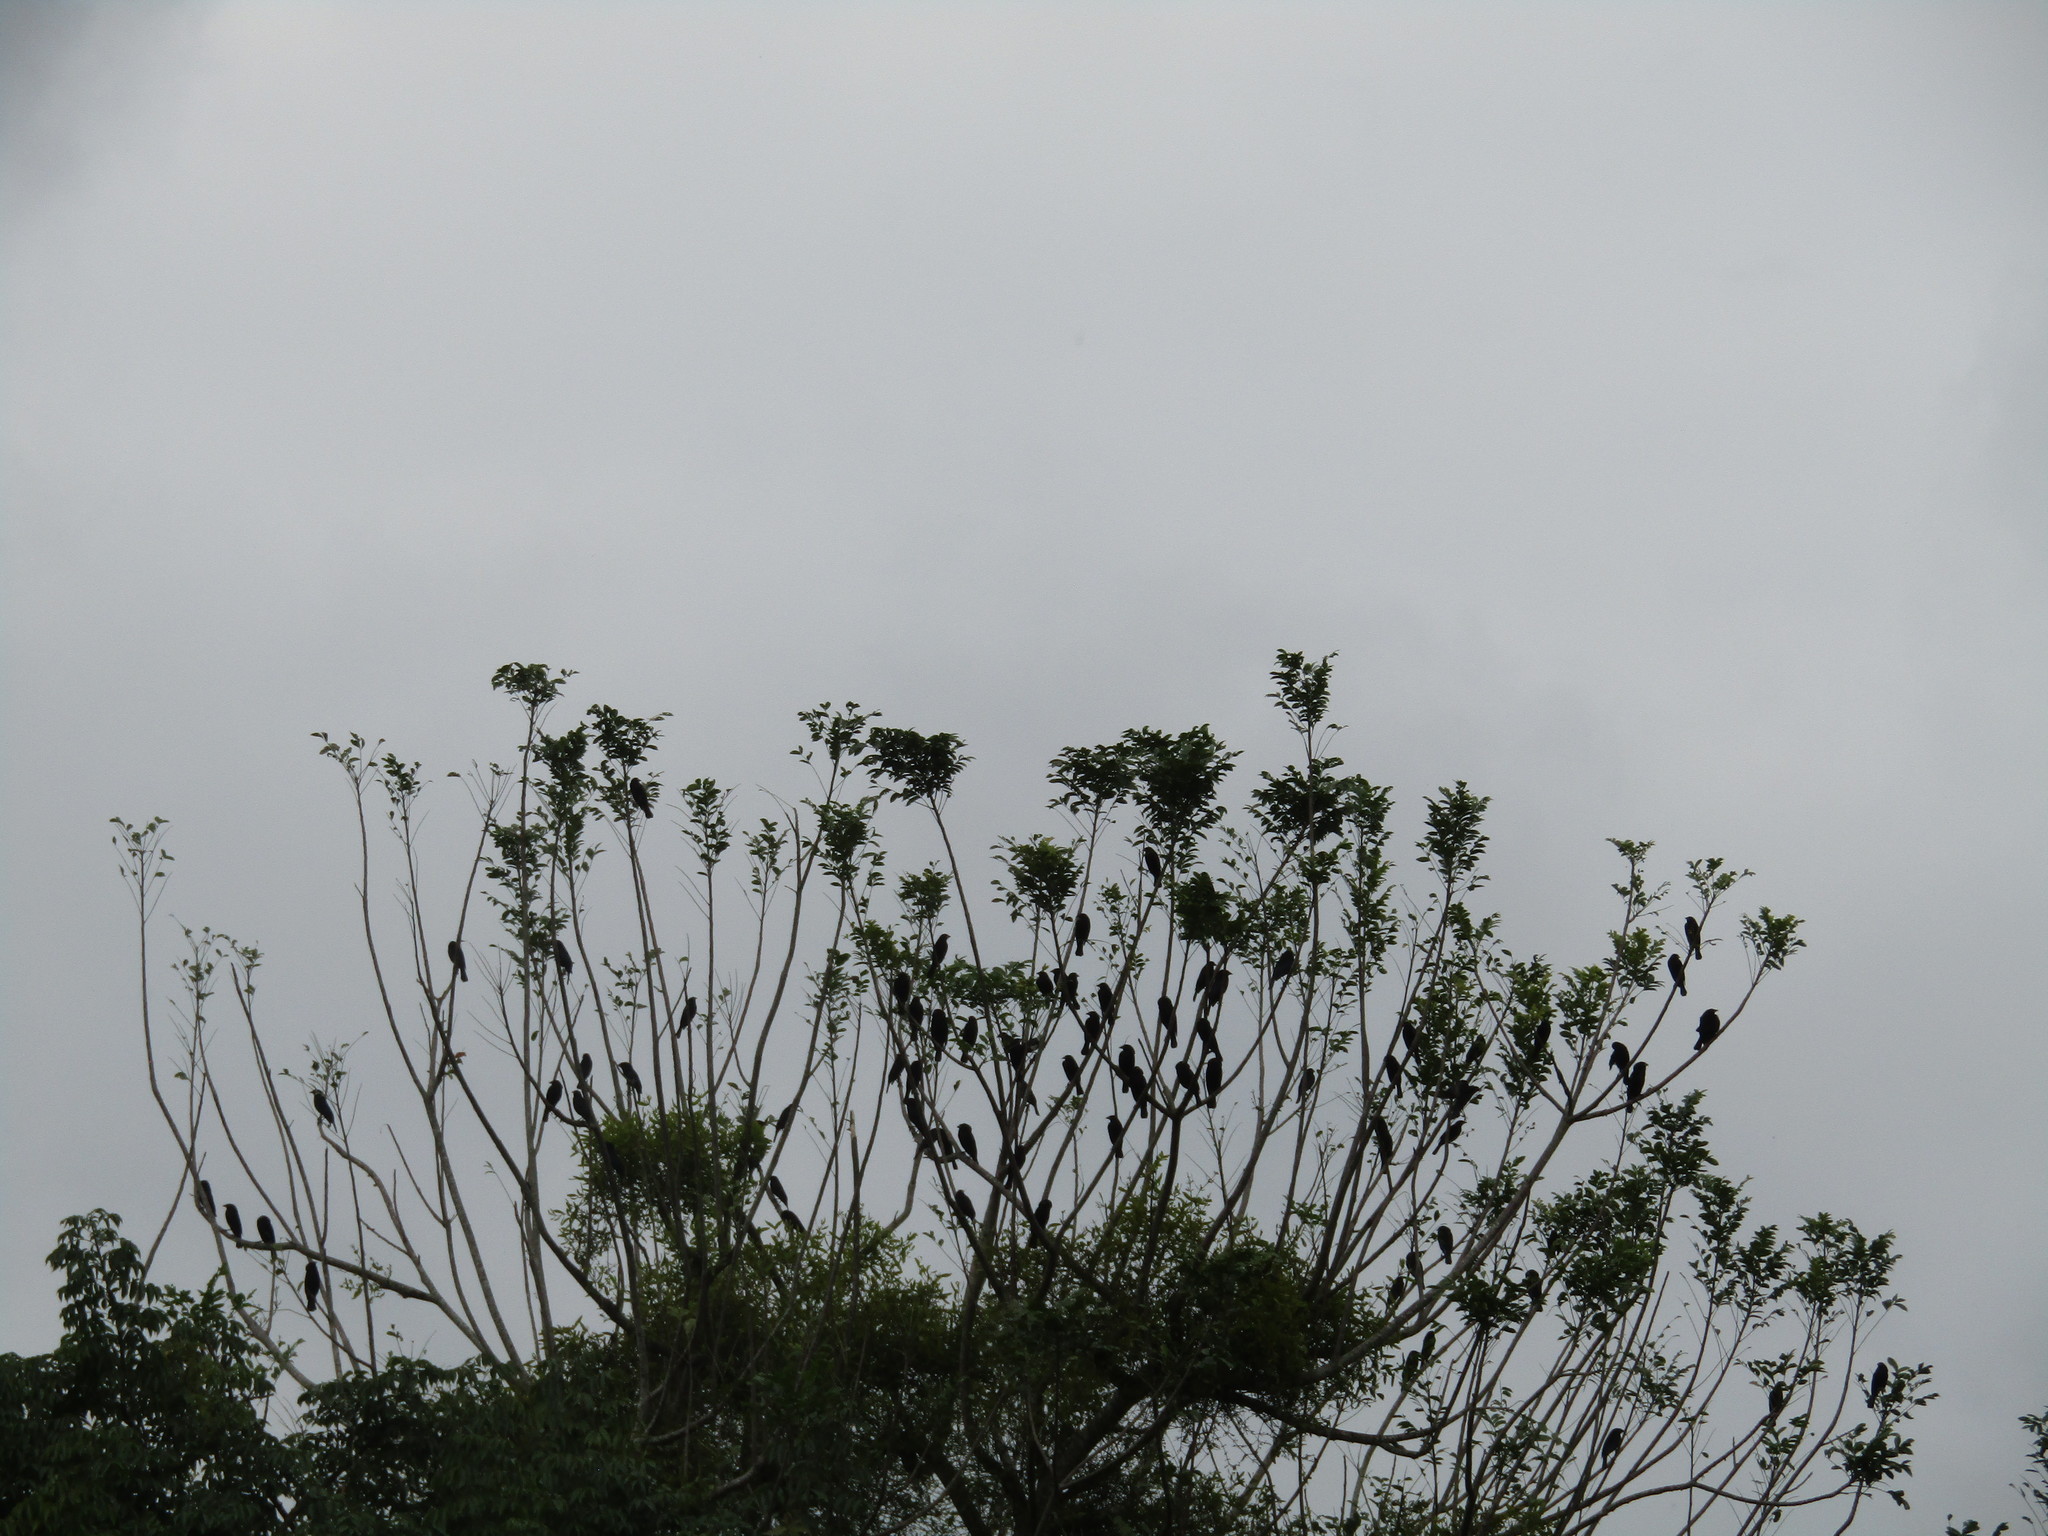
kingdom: Animalia
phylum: Chordata
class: Aves
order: Passeriformes
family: Icteridae
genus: Molothrus
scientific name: Molothrus aeneus
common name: Bronzed cowbird
